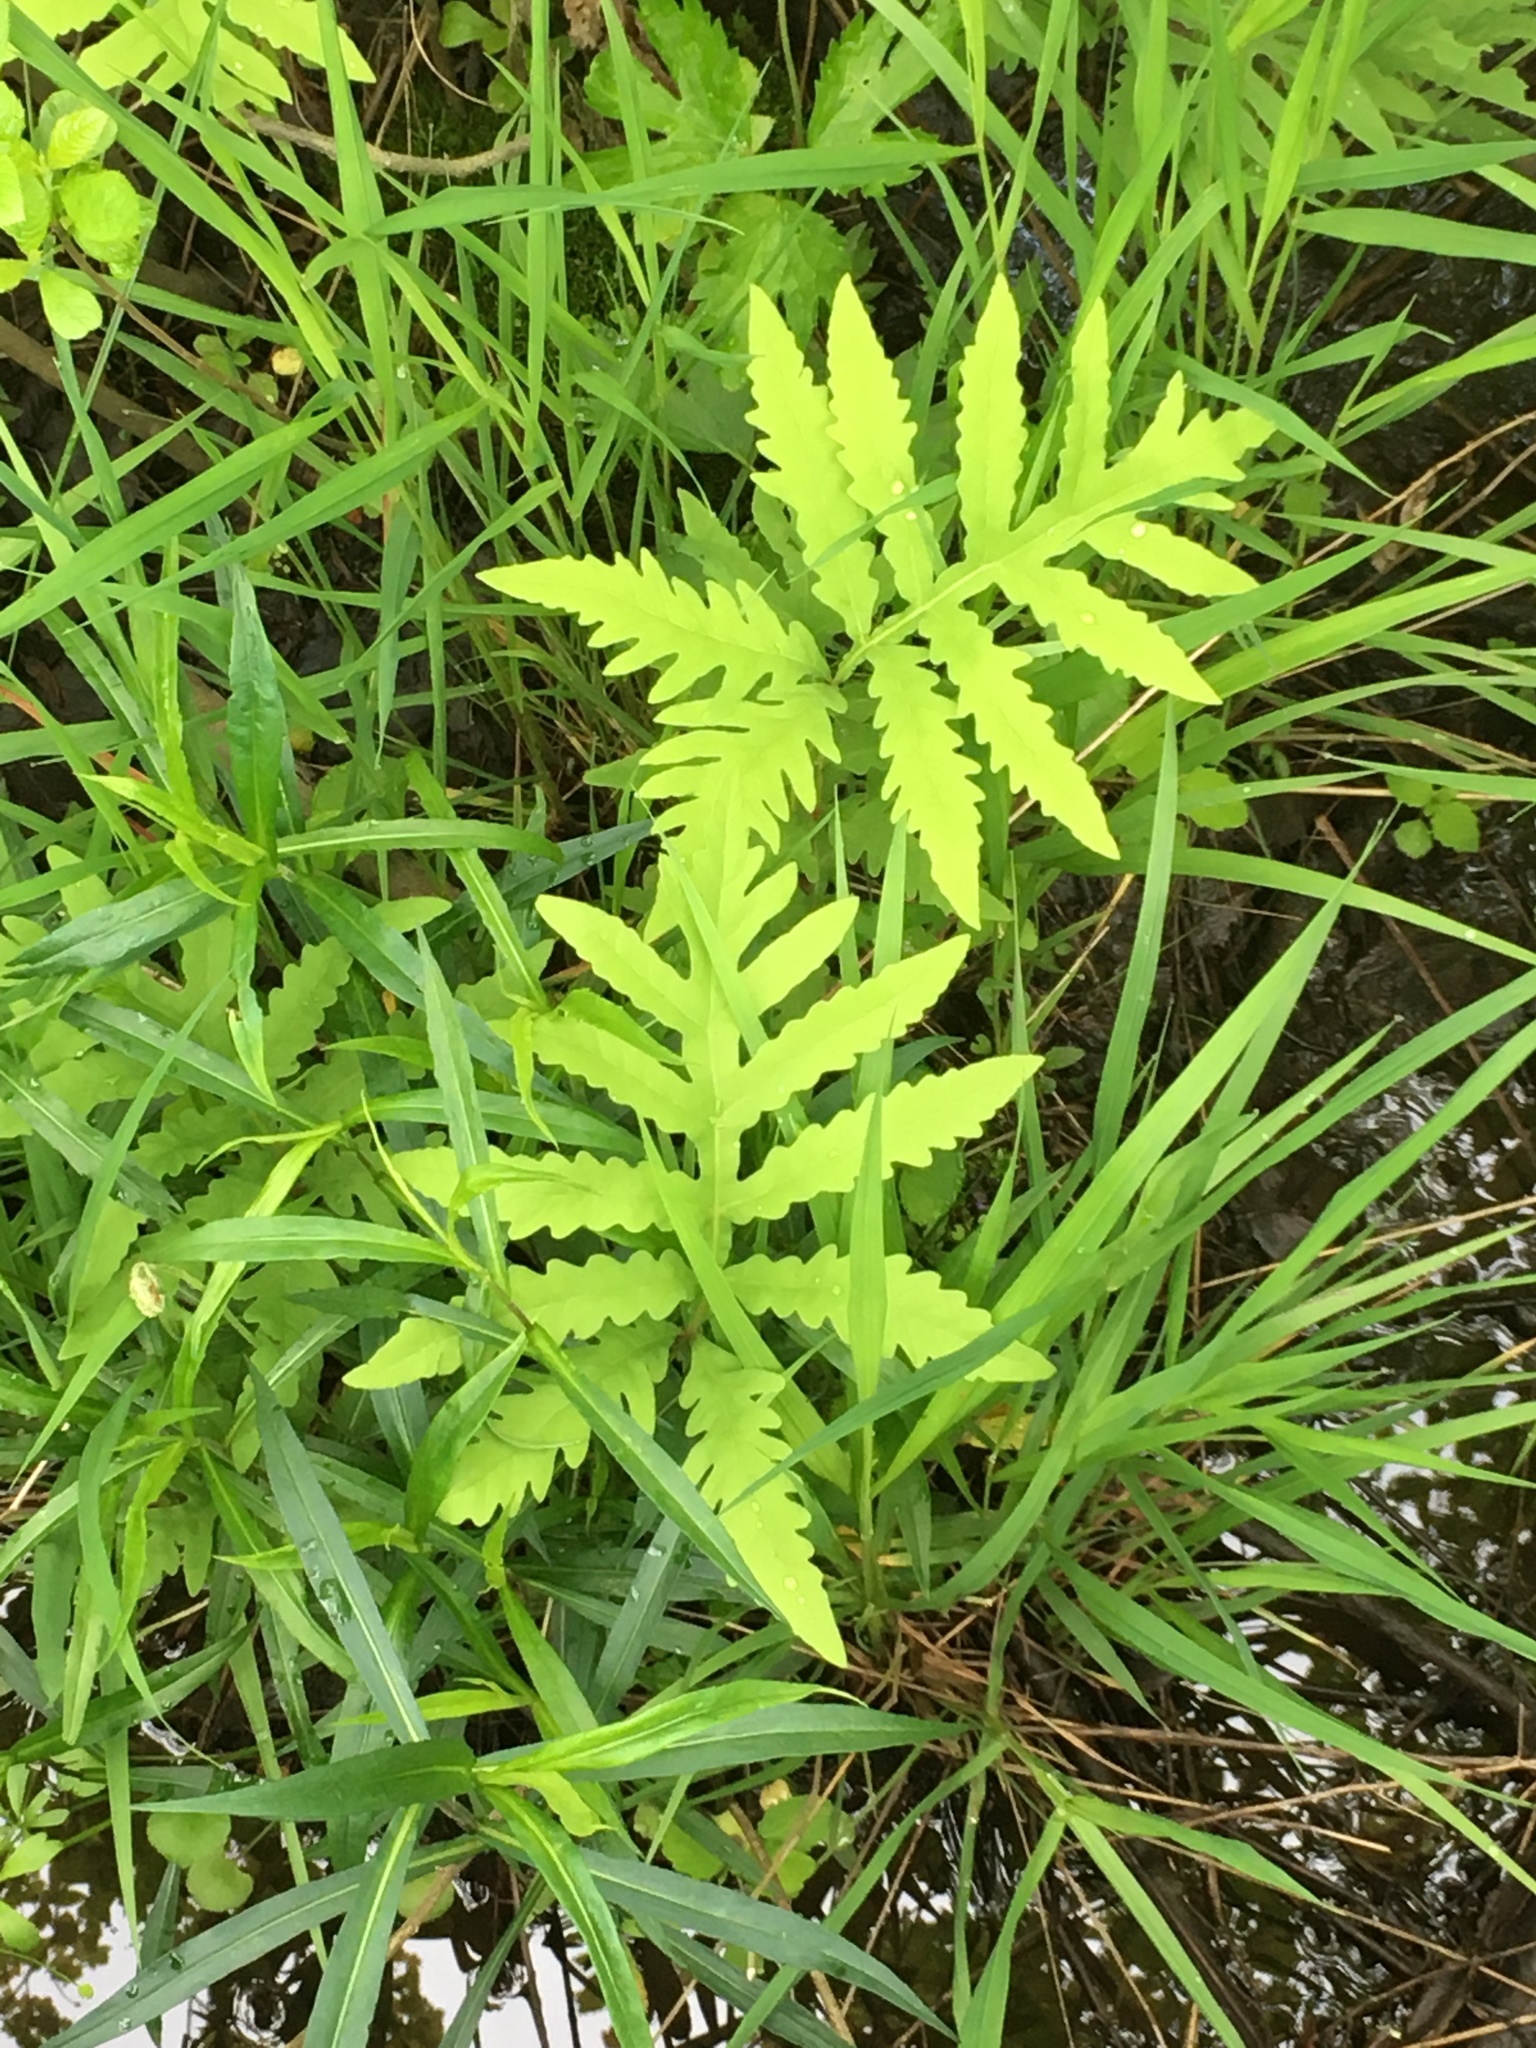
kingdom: Plantae
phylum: Tracheophyta
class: Polypodiopsida
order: Polypodiales
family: Onocleaceae
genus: Onoclea
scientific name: Onoclea sensibilis
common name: Sensitive fern
